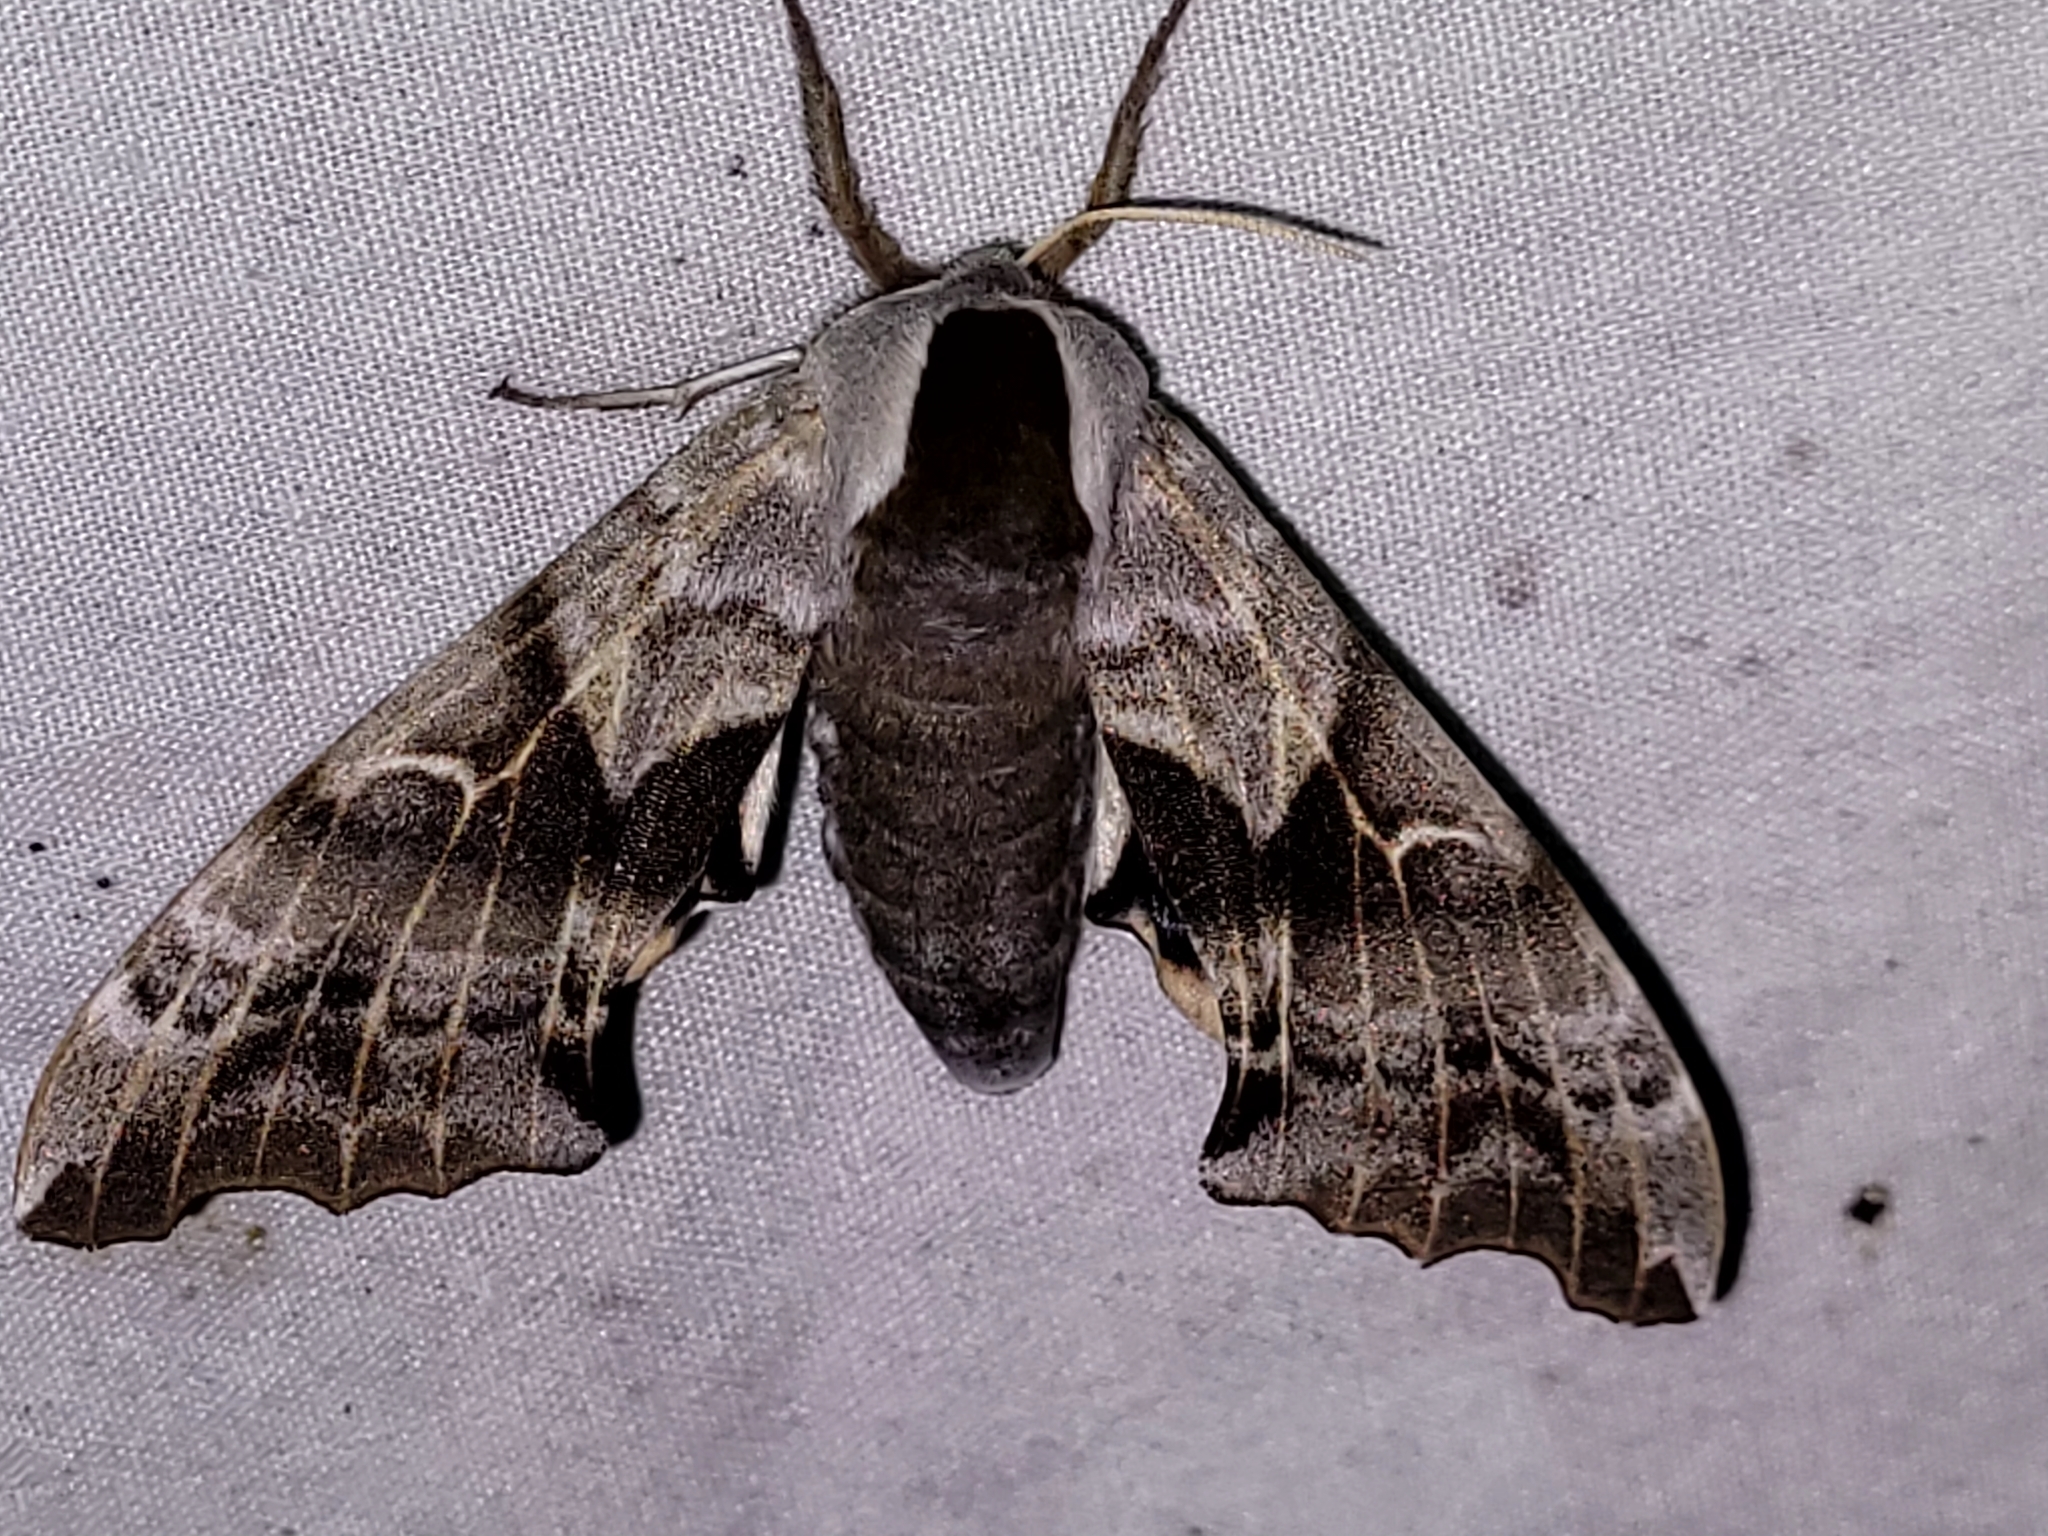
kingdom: Animalia
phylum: Arthropoda
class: Insecta
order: Lepidoptera
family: Sphingidae
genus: Smerinthus
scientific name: Smerinthus cerisyi
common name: Cerisy's sphinx moth
